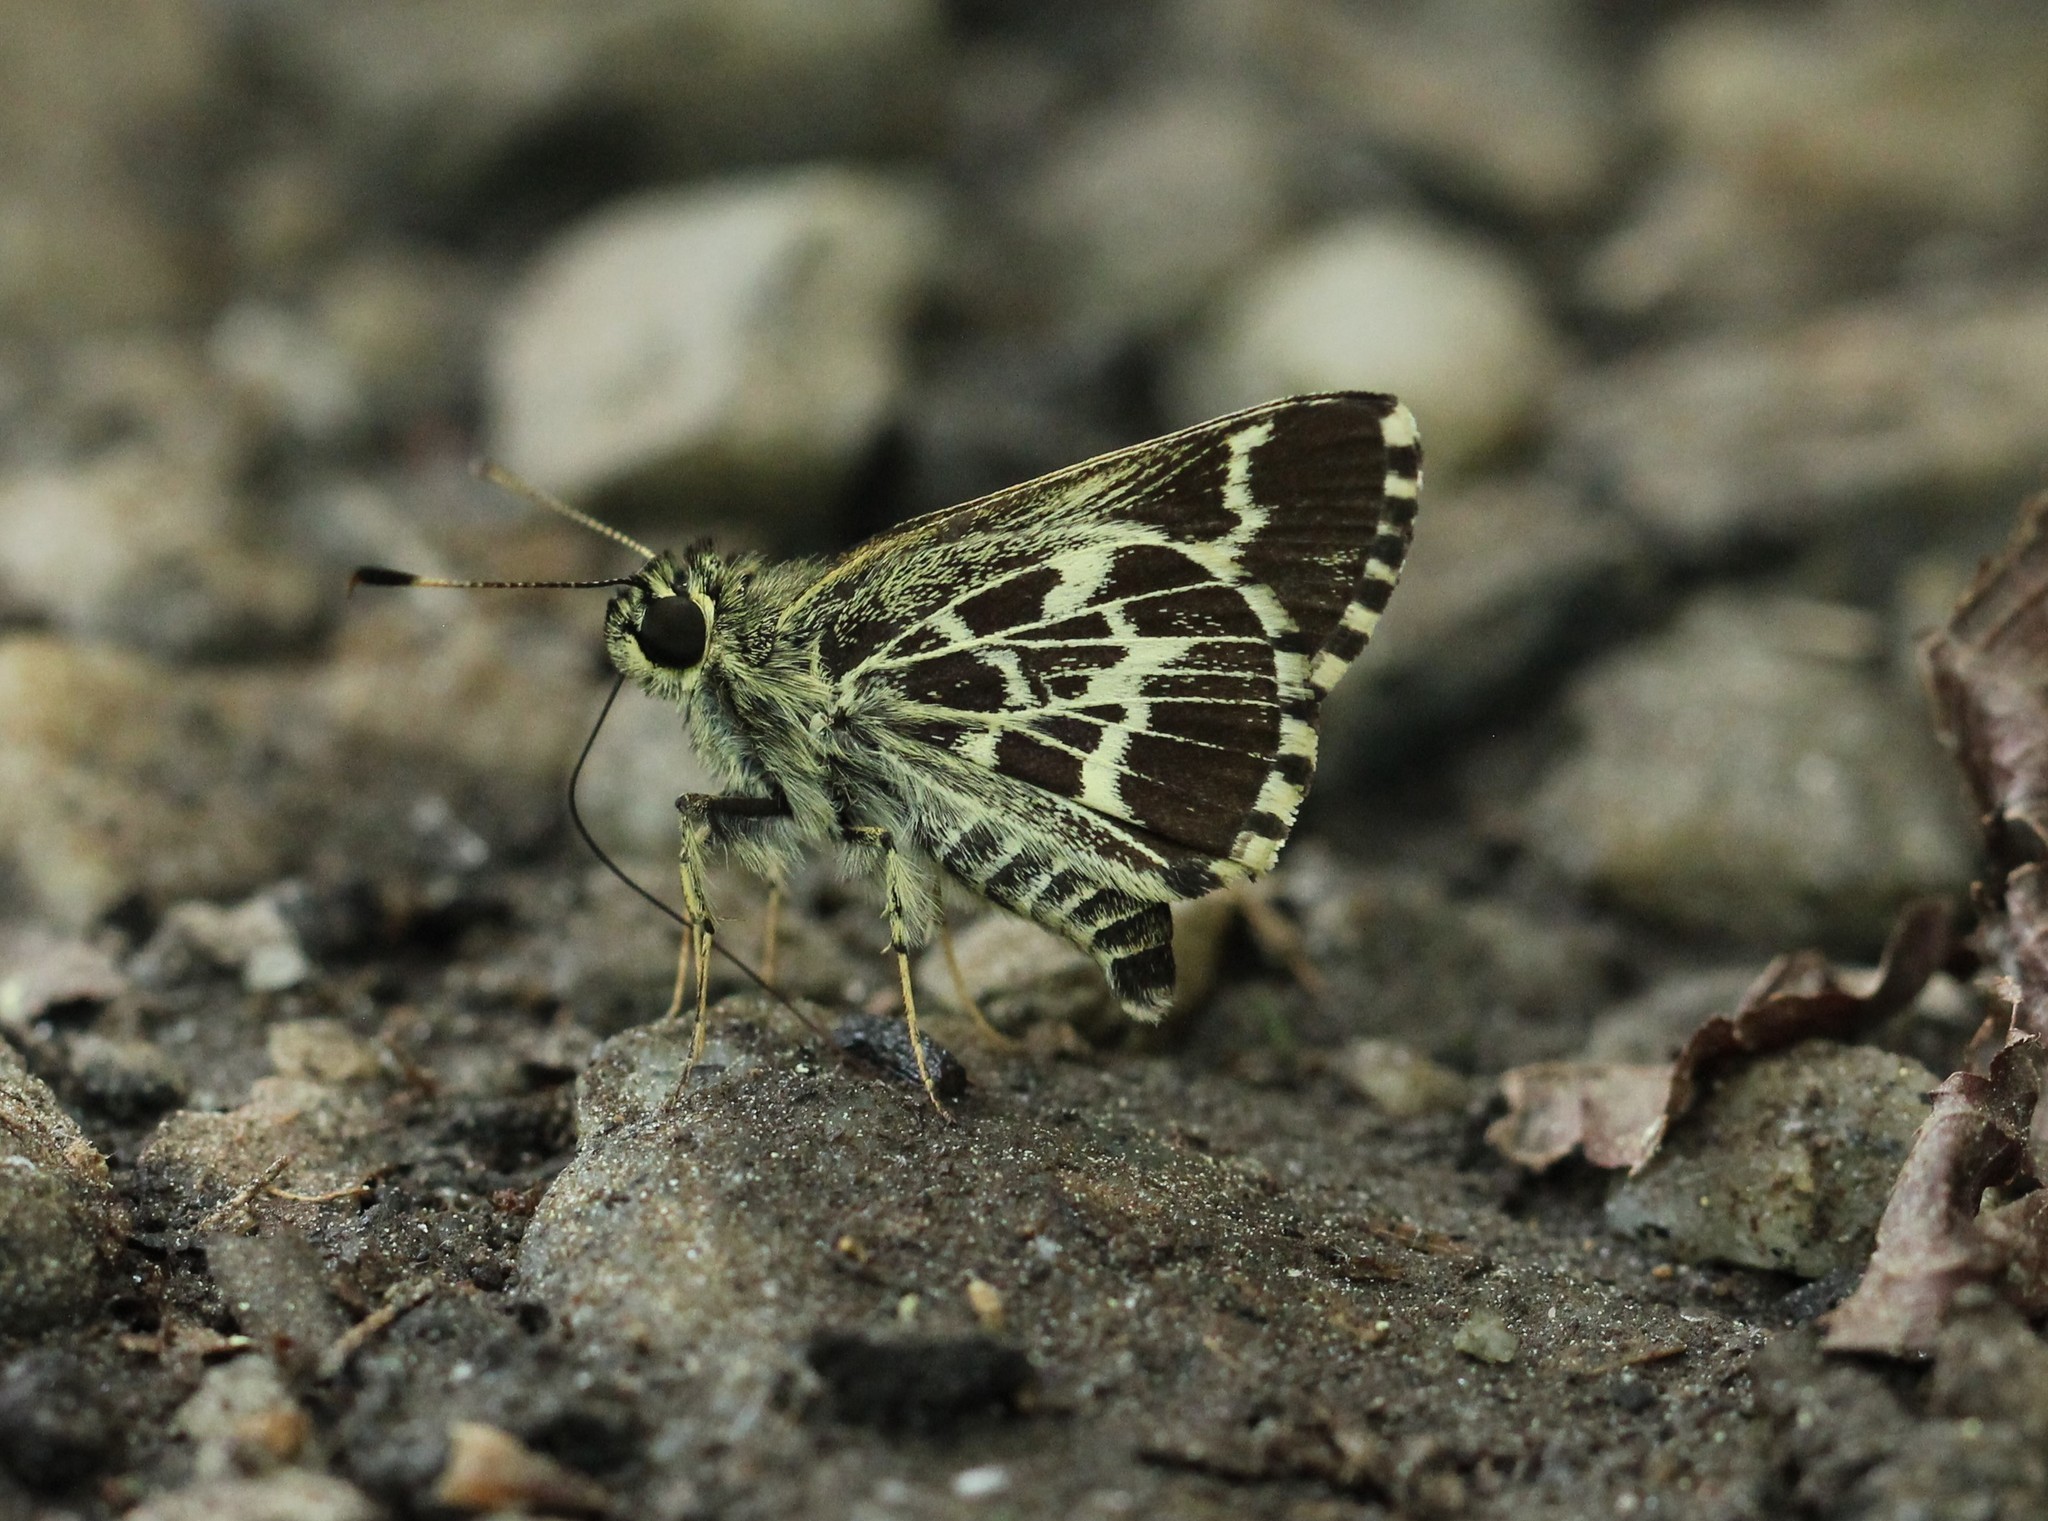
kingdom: Animalia
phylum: Arthropoda
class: Insecta
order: Lepidoptera
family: Hesperiidae
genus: Mastor
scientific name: Mastor aesculapius
